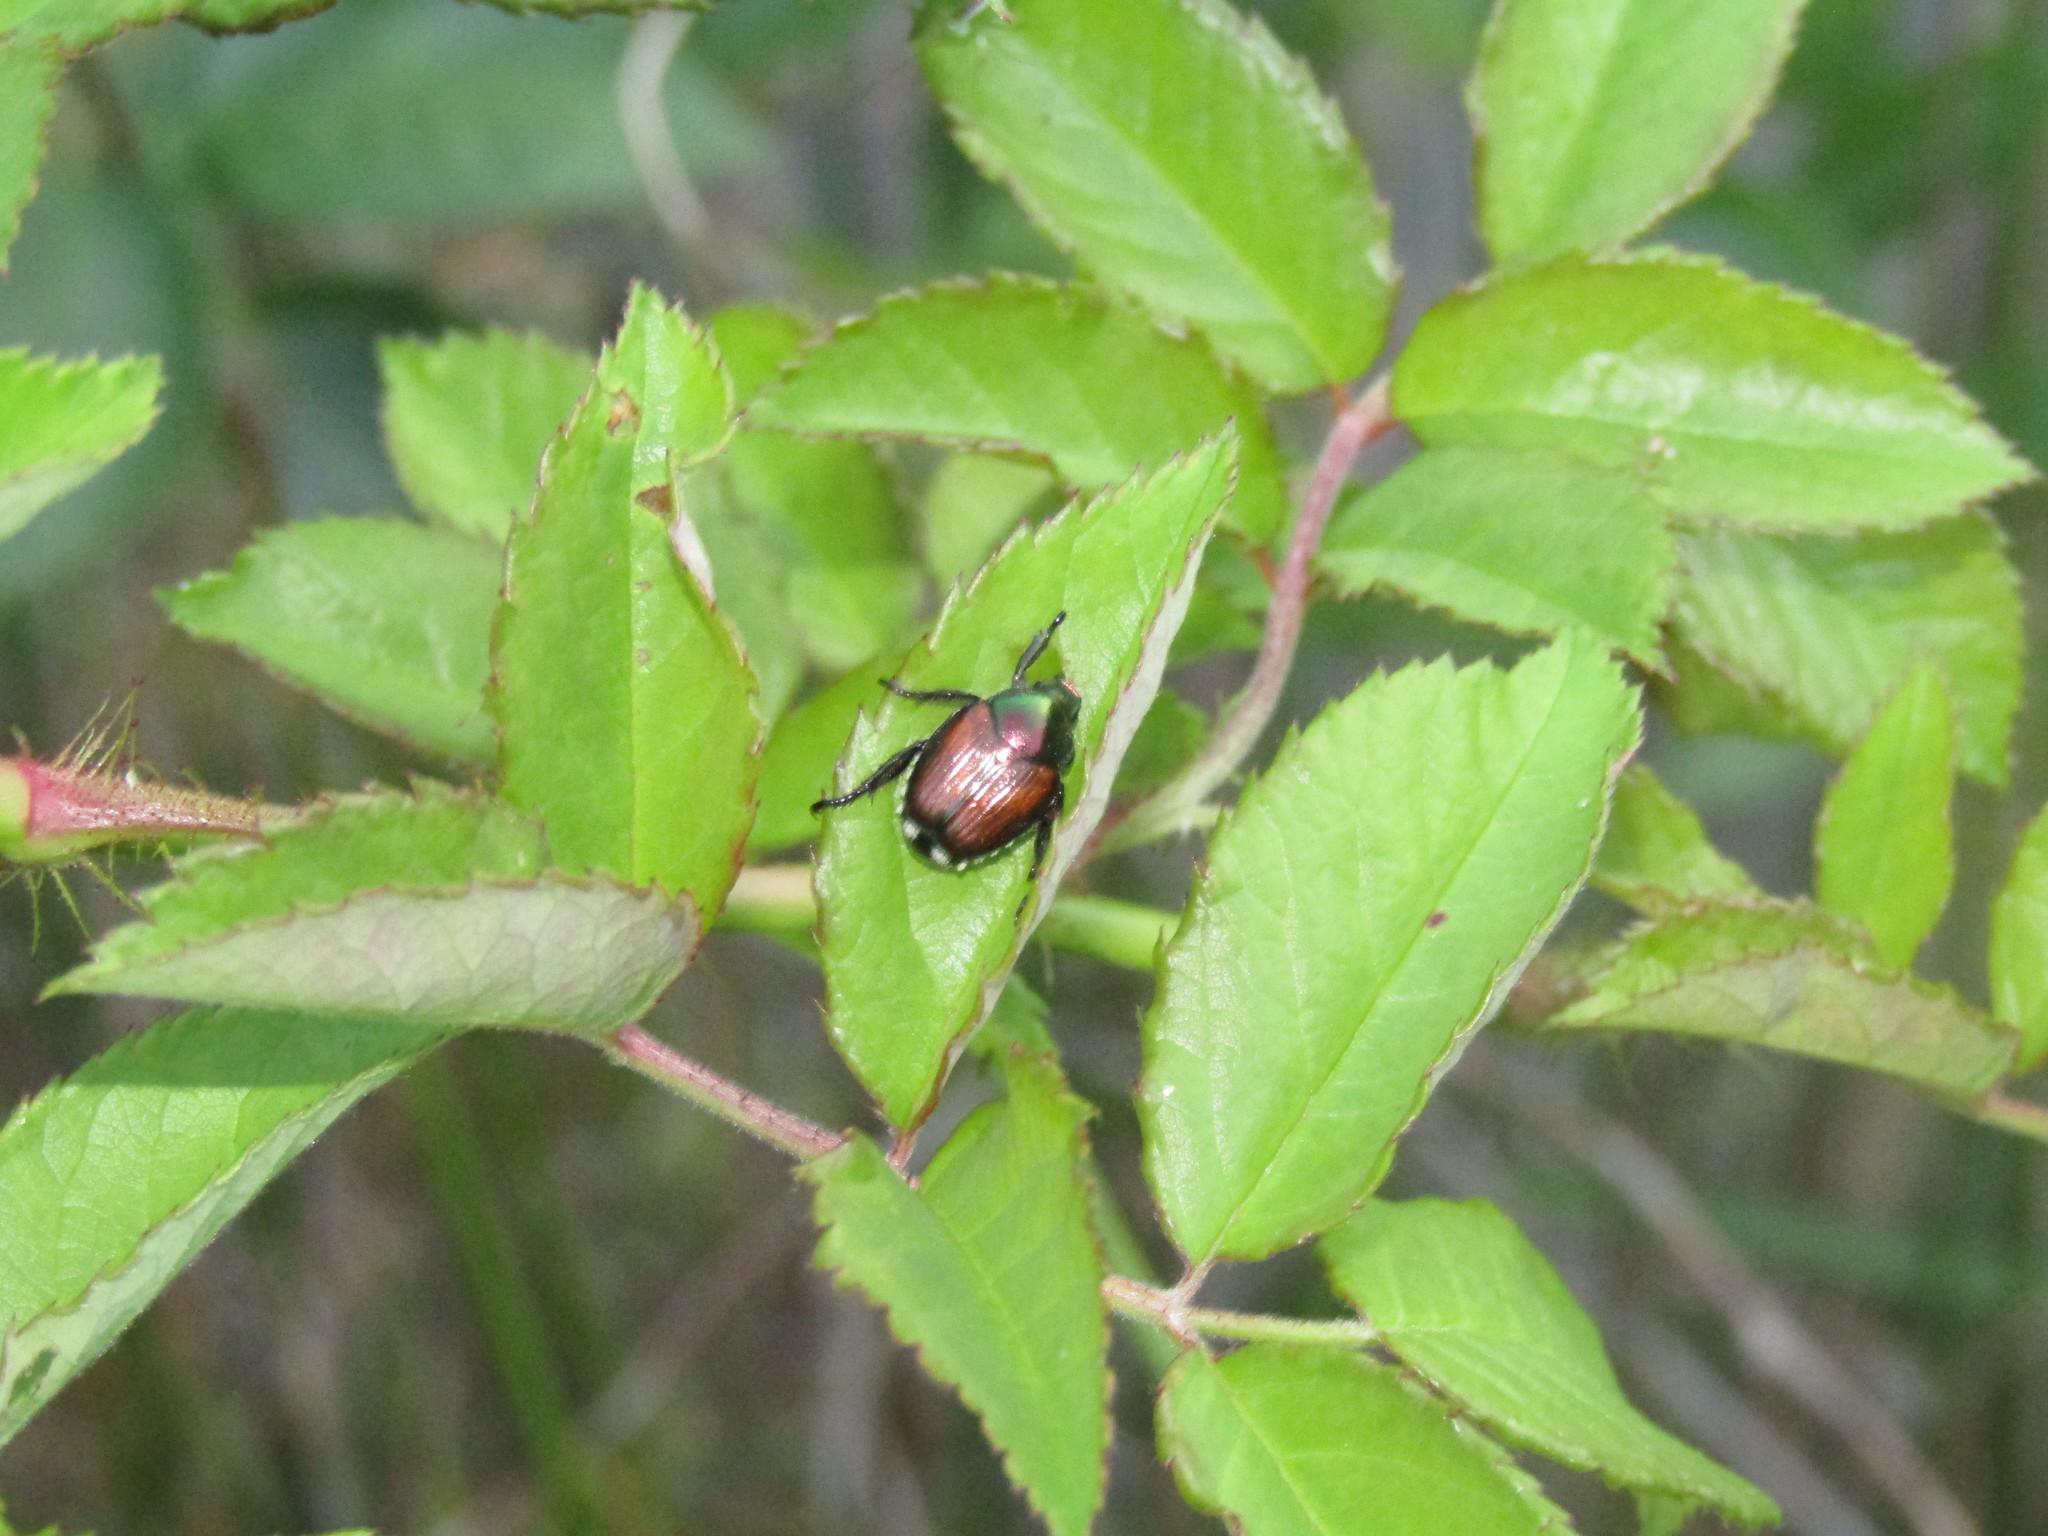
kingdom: Animalia
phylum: Arthropoda
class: Insecta
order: Coleoptera
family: Scarabaeidae
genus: Popillia
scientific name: Popillia japonica
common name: Japanese beetle
